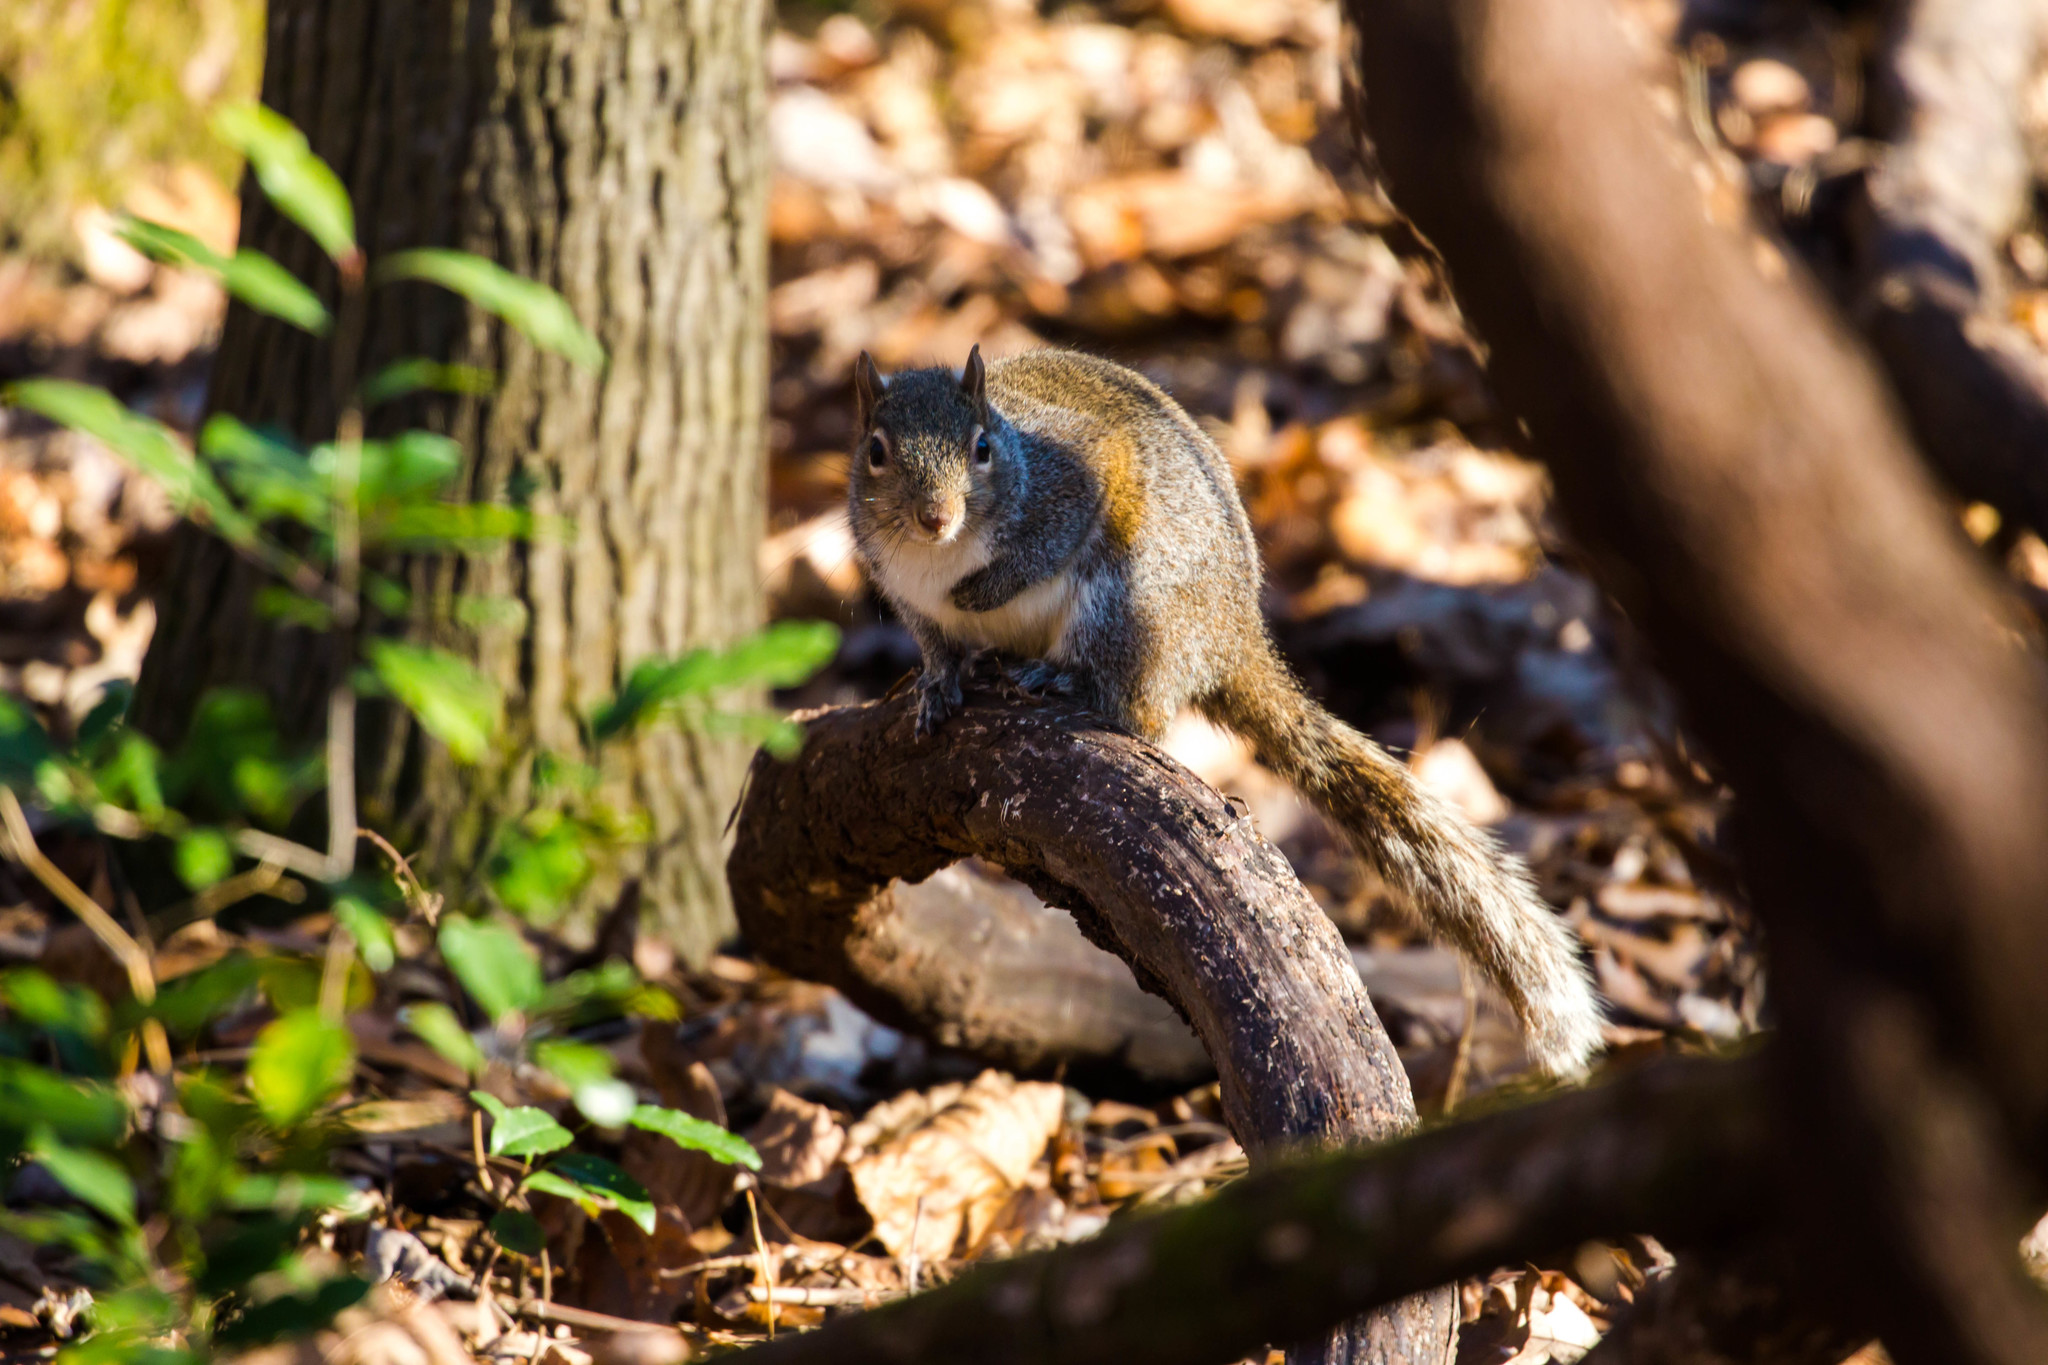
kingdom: Animalia
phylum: Chordata
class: Mammalia
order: Rodentia
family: Sciuridae
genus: Sciurus
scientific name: Sciurus carolinensis
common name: Eastern gray squirrel
